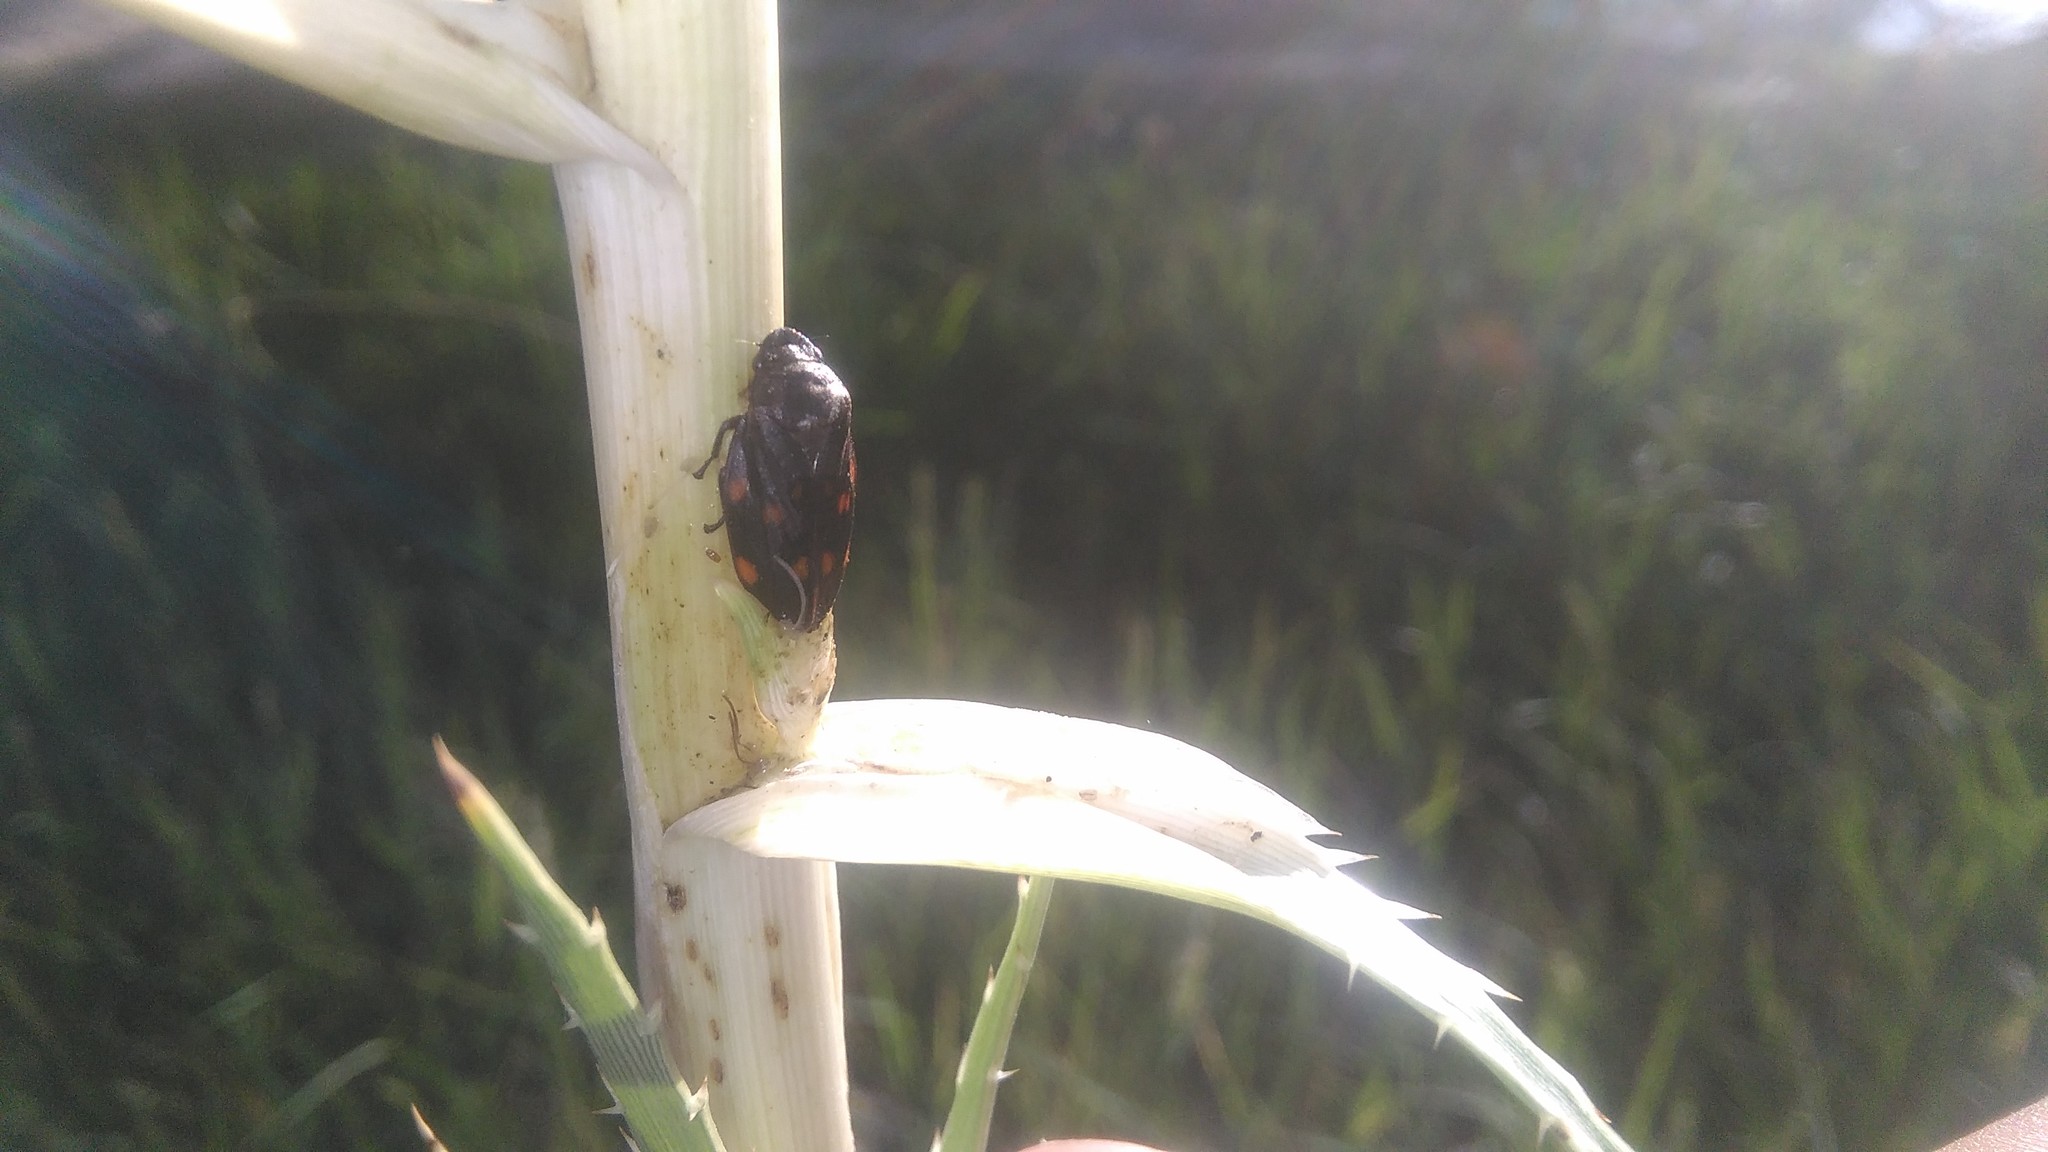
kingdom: Animalia
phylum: Arthropoda
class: Insecta
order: Hemiptera
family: Cercopidae
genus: Kanaima
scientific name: Kanaima fluvialis
